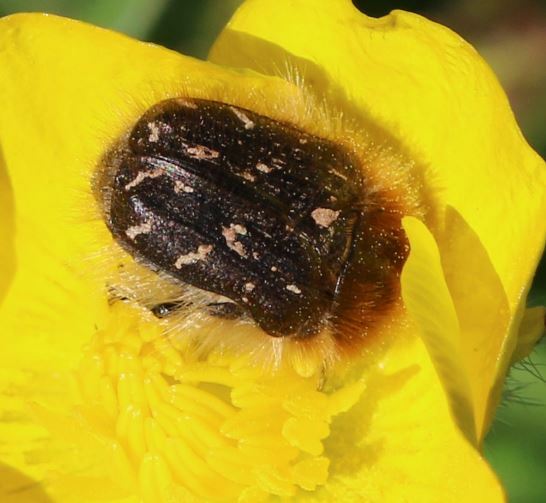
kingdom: Animalia
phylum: Arthropoda
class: Insecta
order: Coleoptera
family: Scarabaeidae
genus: Tropinota
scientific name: Tropinota hirta
